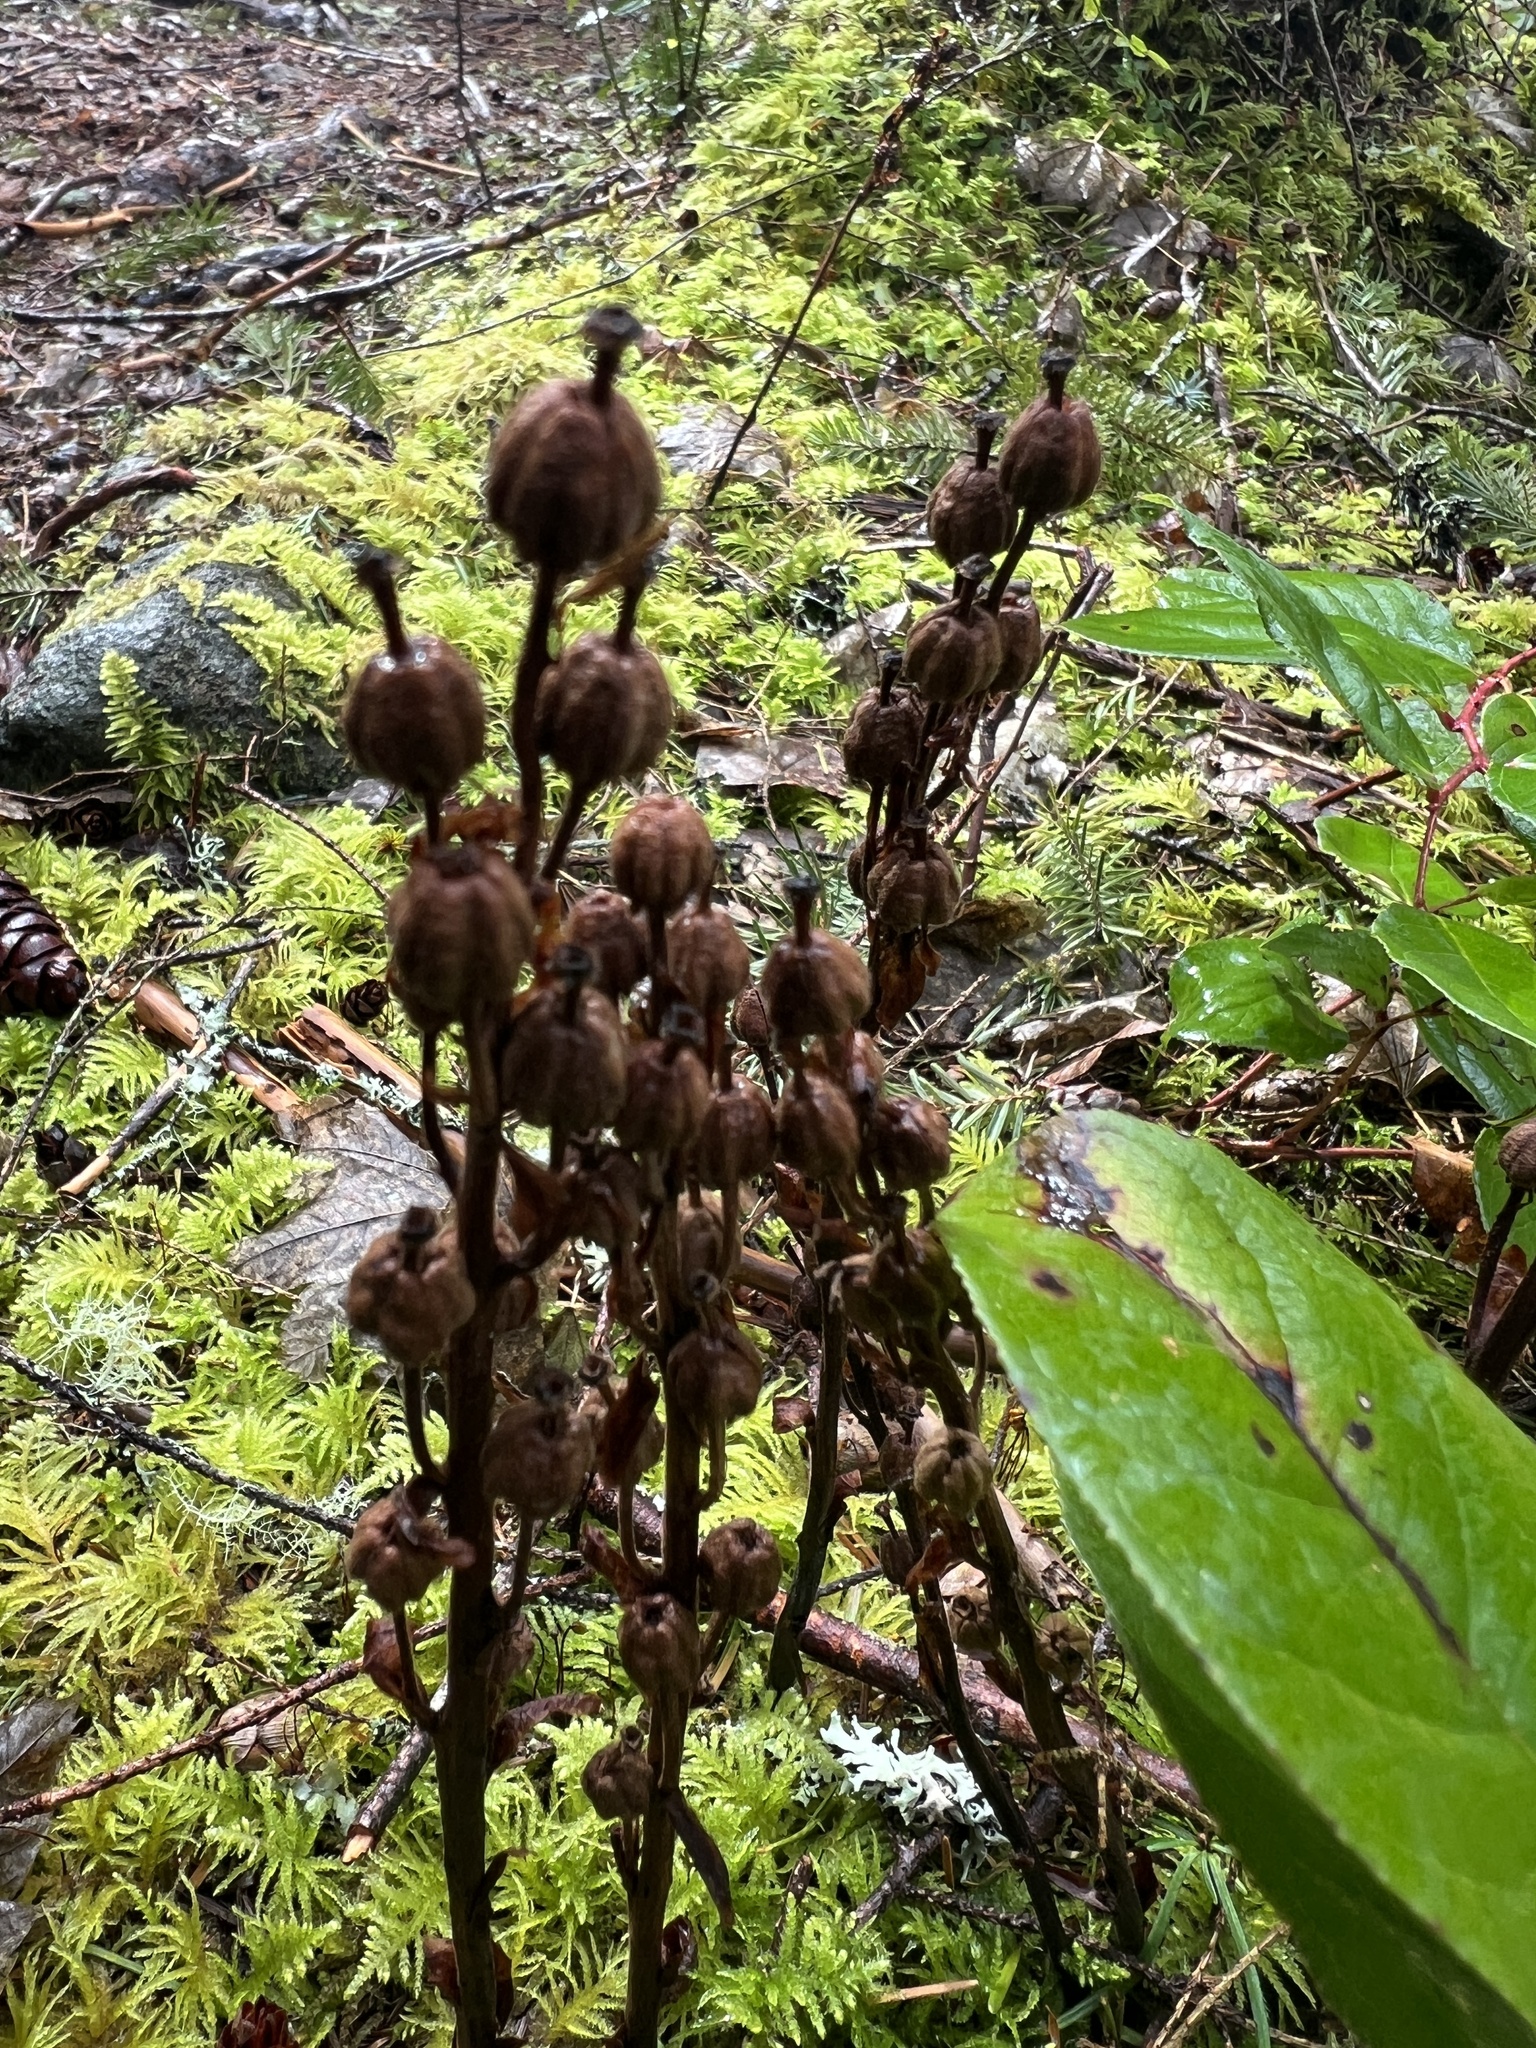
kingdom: Plantae
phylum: Tracheophyta
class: Magnoliopsida
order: Ericales
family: Ericaceae
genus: Hypopitys
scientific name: Hypopitys monotropa
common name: Yellow bird's-nest
